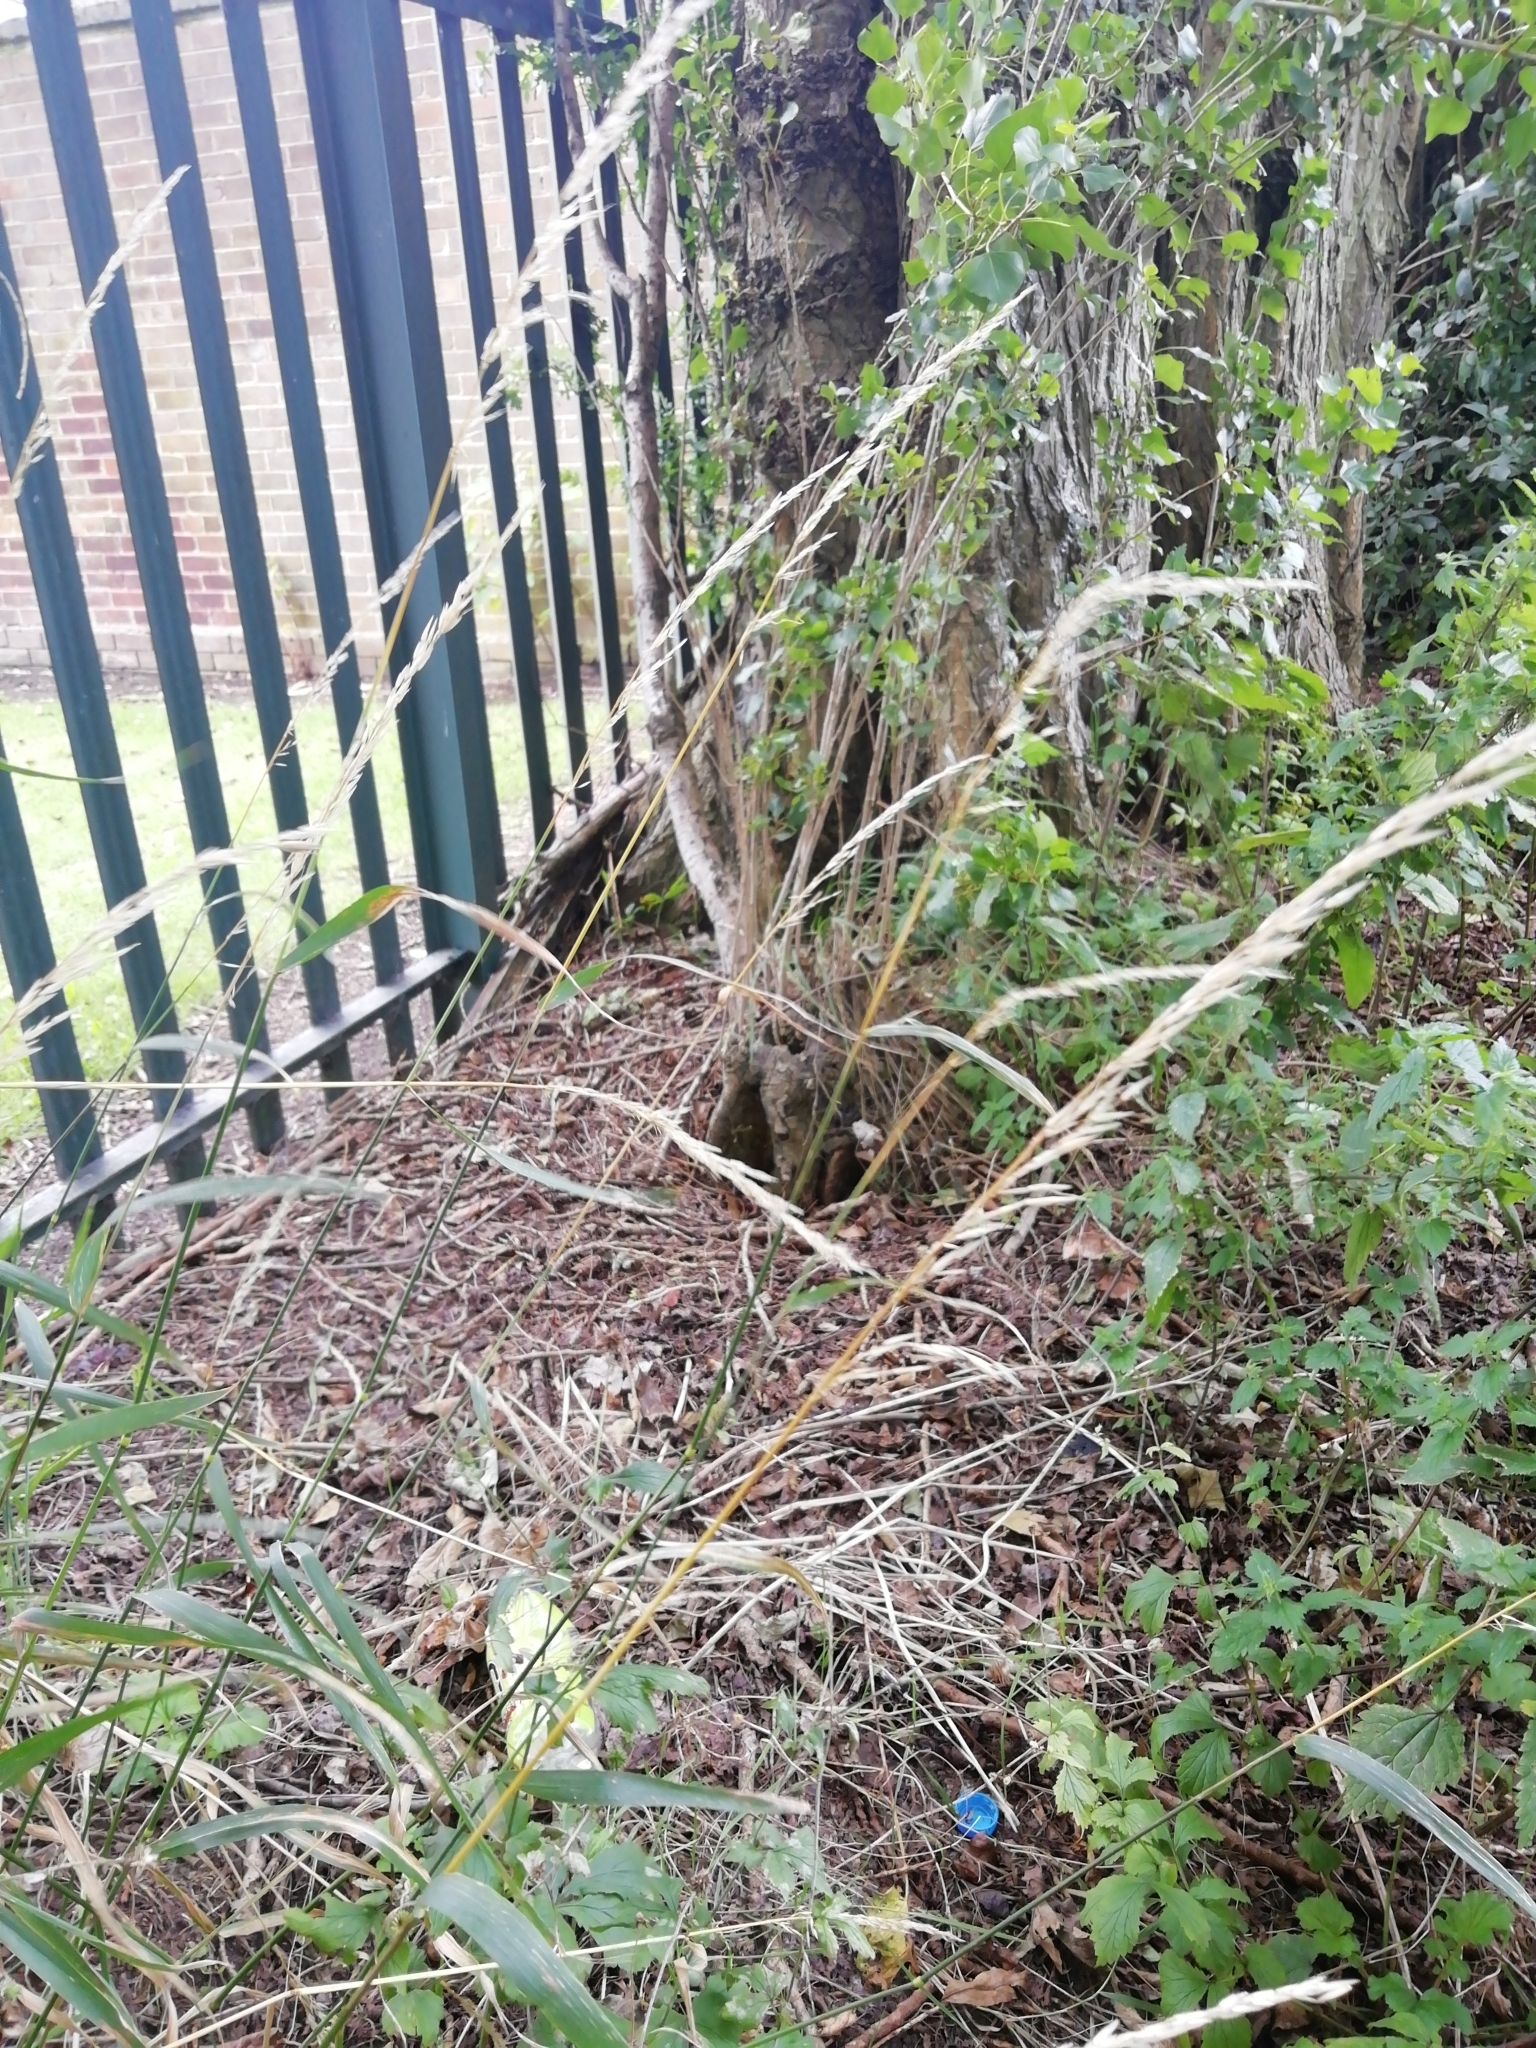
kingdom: Plantae
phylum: Tracheophyta
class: Liliopsida
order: Poales
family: Poaceae
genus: Arrhenatherum
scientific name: Arrhenatherum elatius
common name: Tall oatgrass
